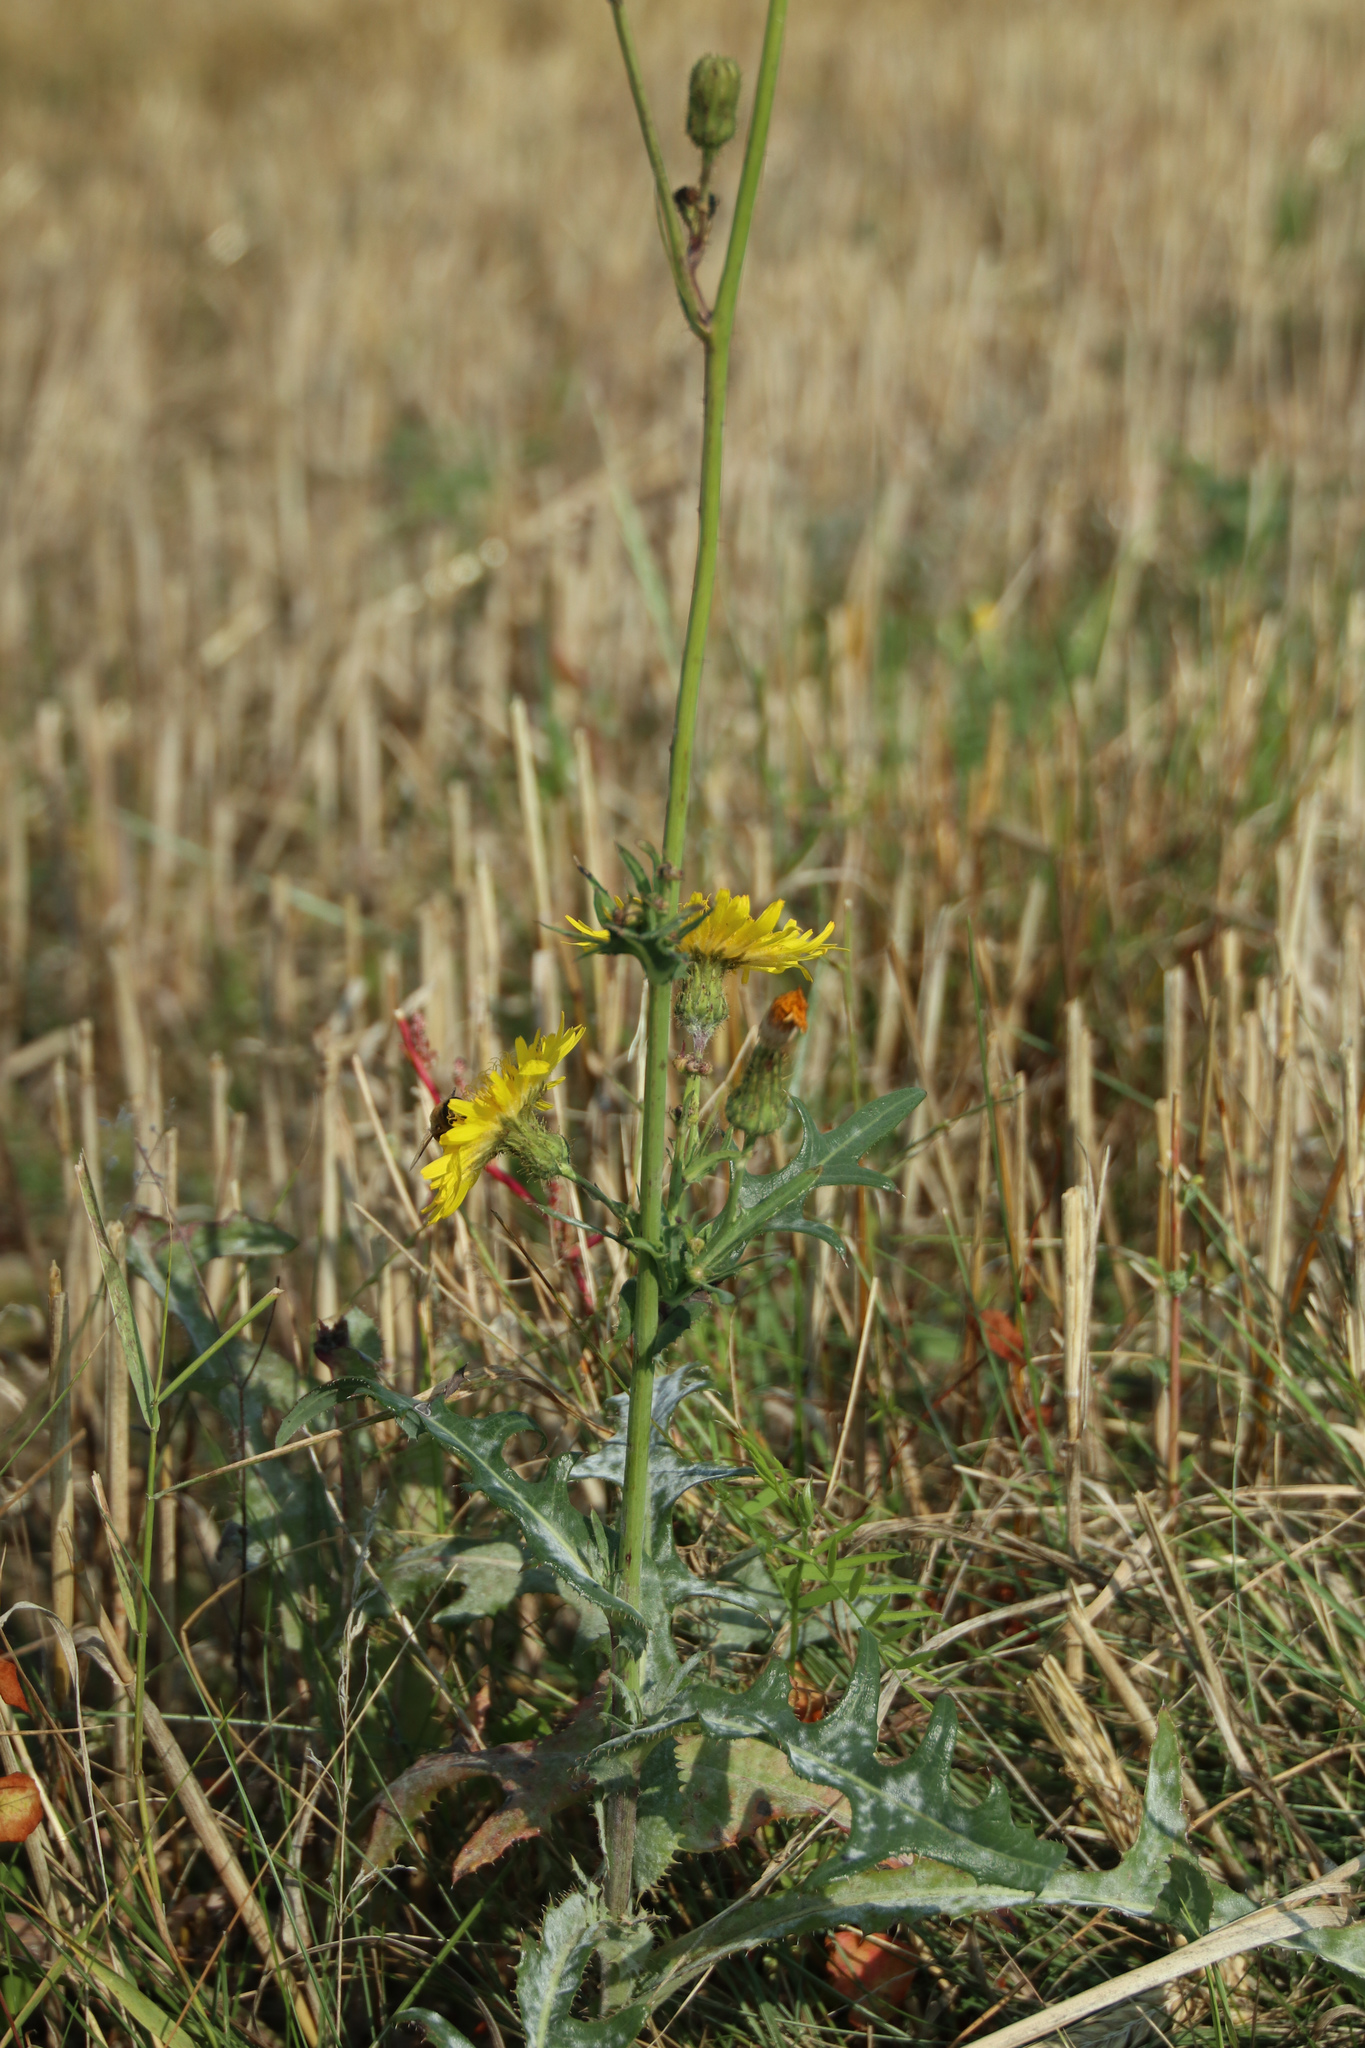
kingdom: Plantae
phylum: Tracheophyta
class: Magnoliopsida
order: Asterales
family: Asteraceae
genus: Sonchus
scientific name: Sonchus arvensis
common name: Perennial sow-thistle
